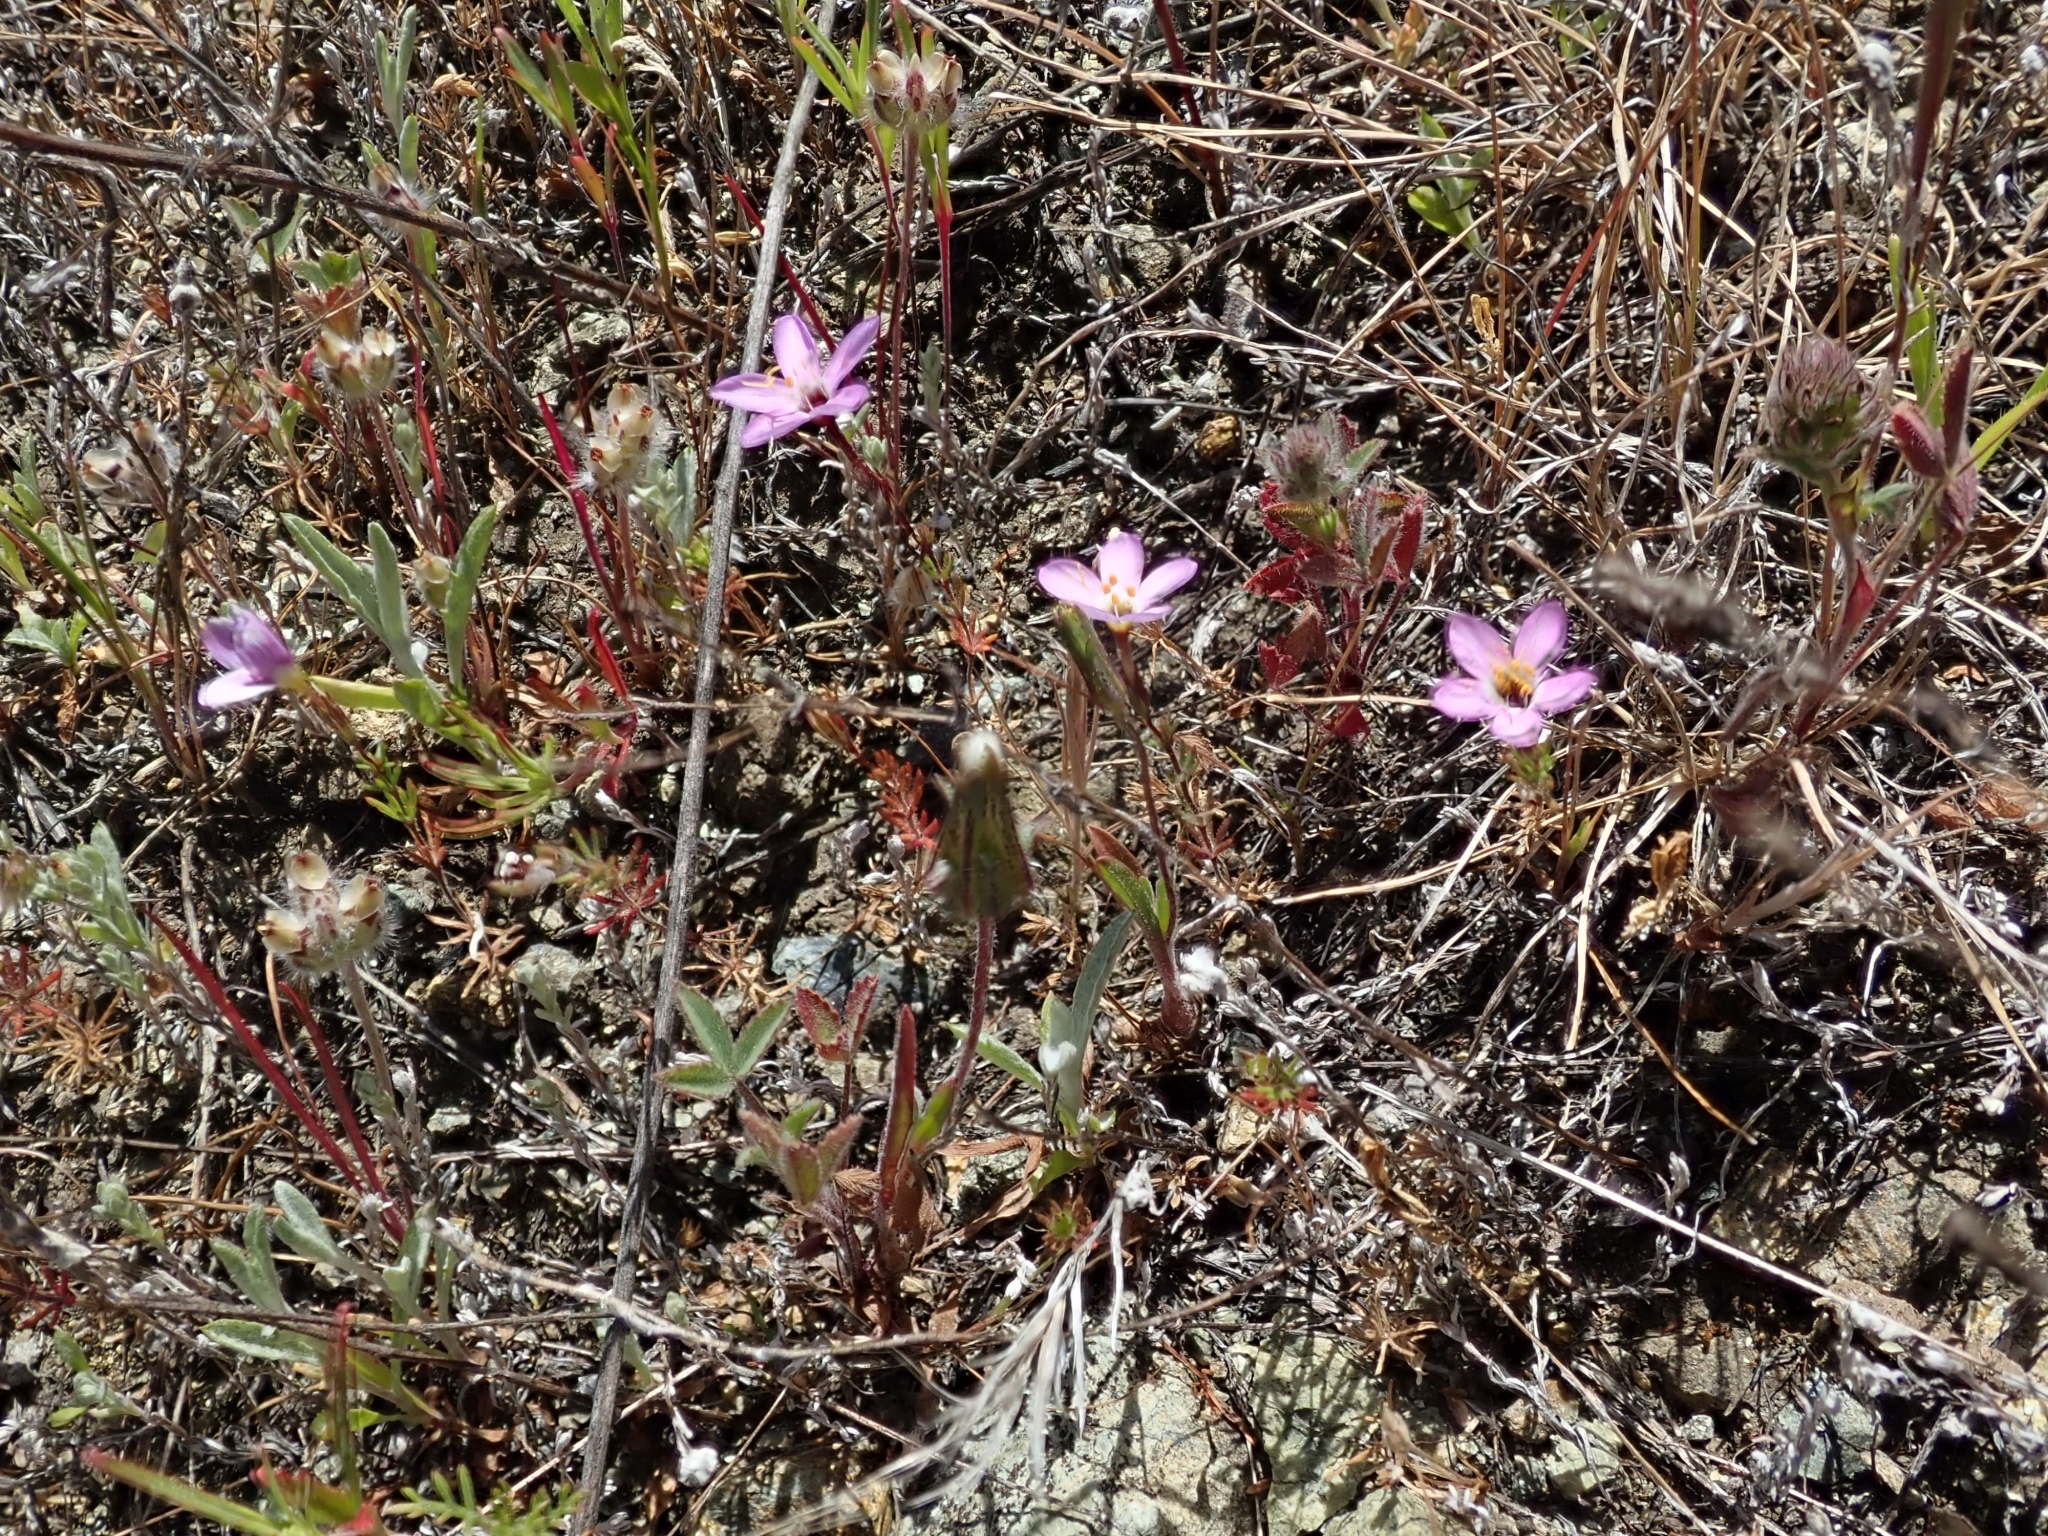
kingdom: Plantae
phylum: Tracheophyta
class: Magnoliopsida
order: Ericales
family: Polemoniaceae
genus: Leptosiphon
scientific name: Leptosiphon ambiguus
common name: Serpentine linanthus
